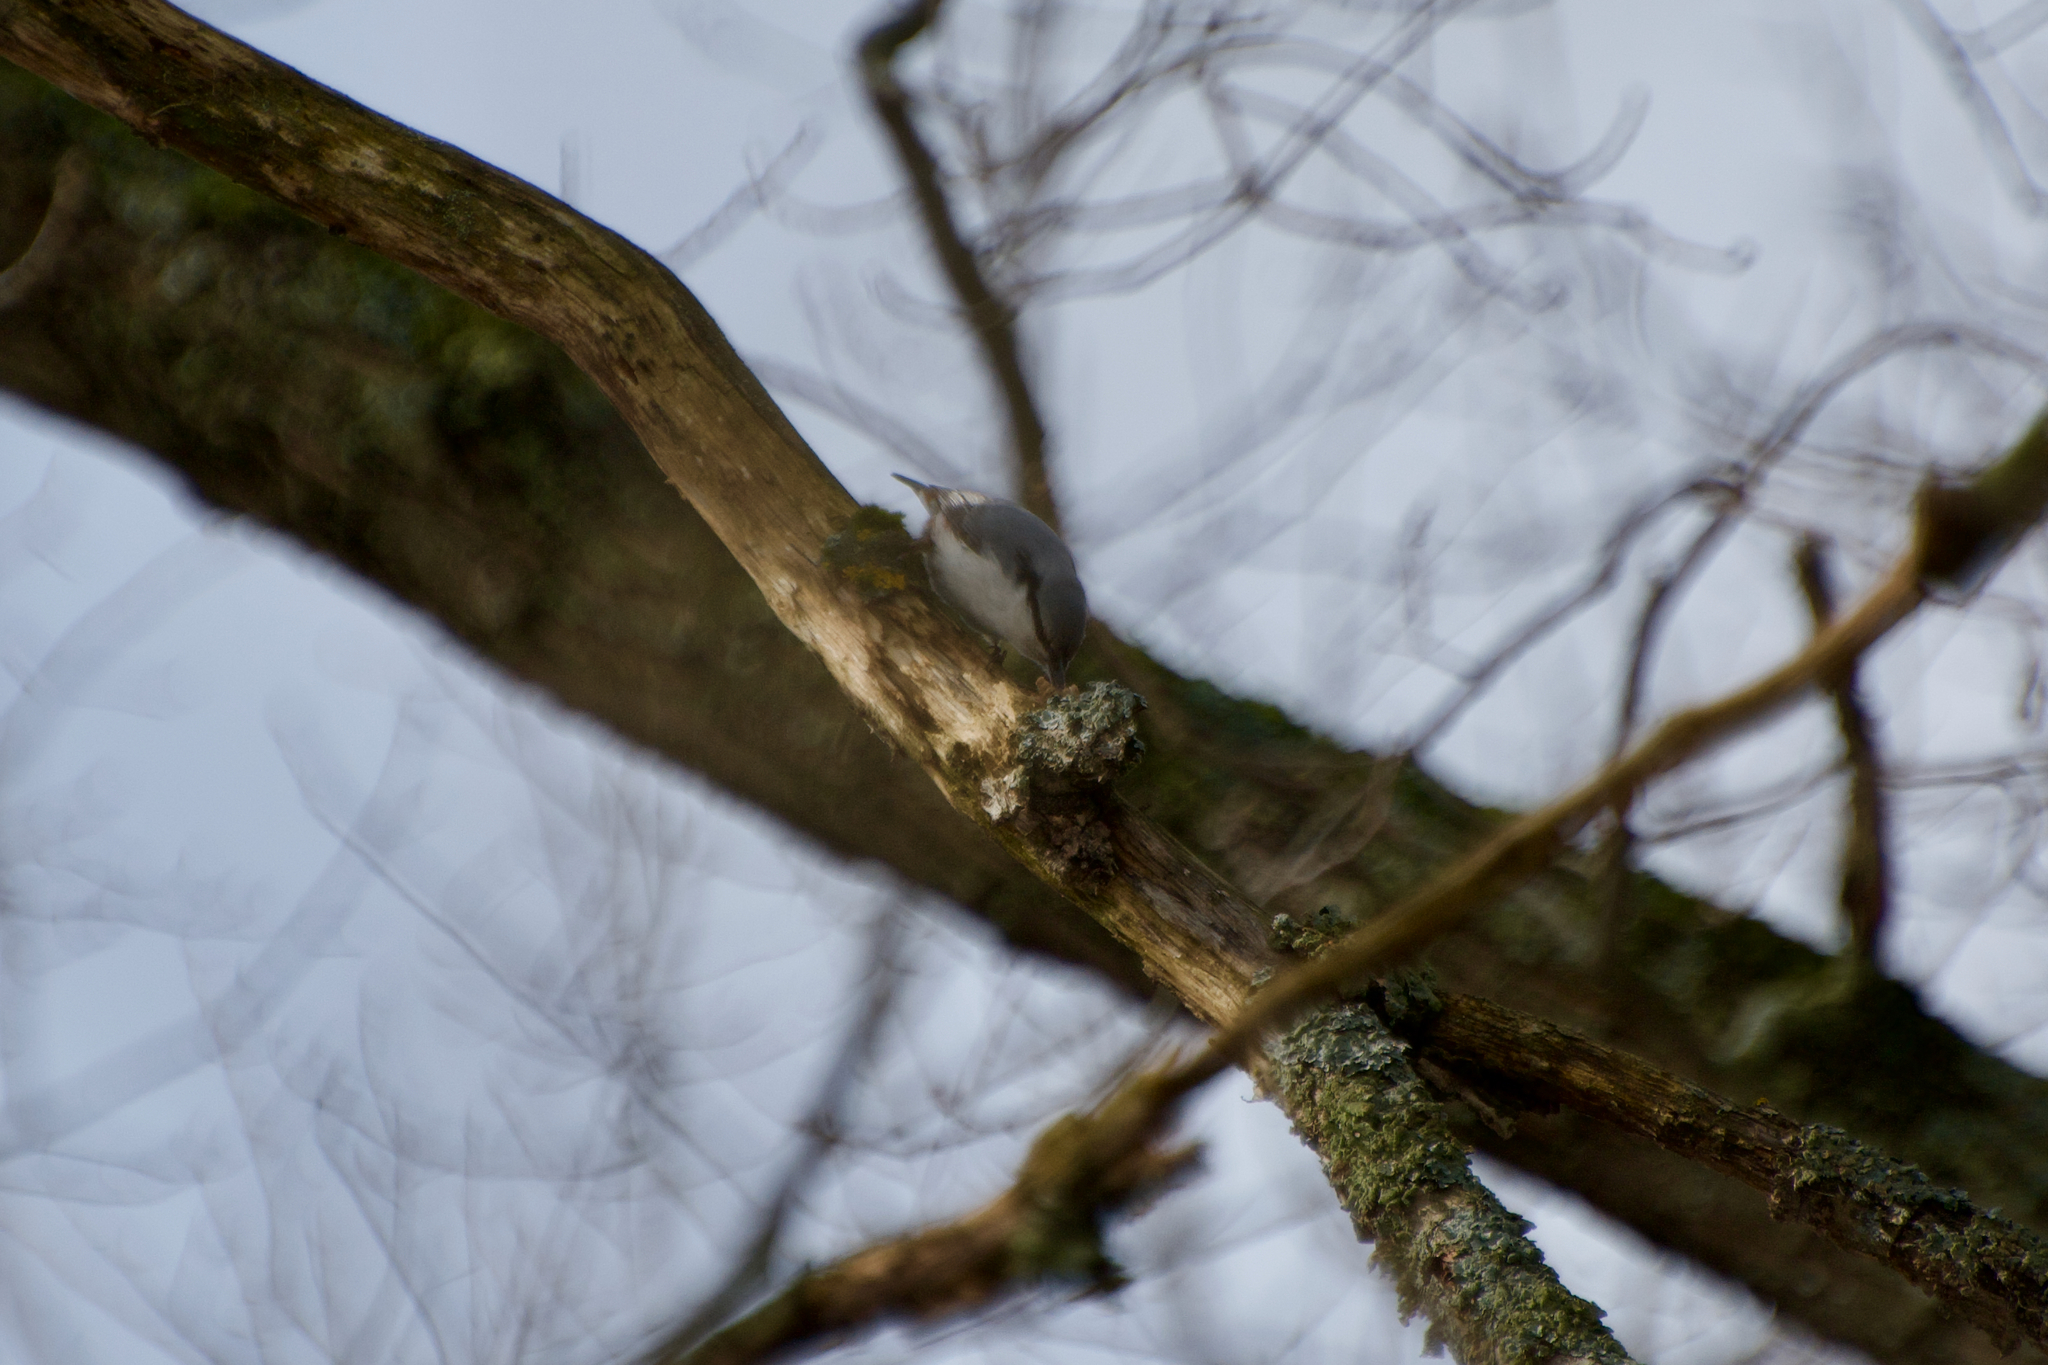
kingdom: Animalia
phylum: Chordata
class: Aves
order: Passeriformes
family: Sittidae
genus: Sitta
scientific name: Sitta europaea
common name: Eurasian nuthatch
